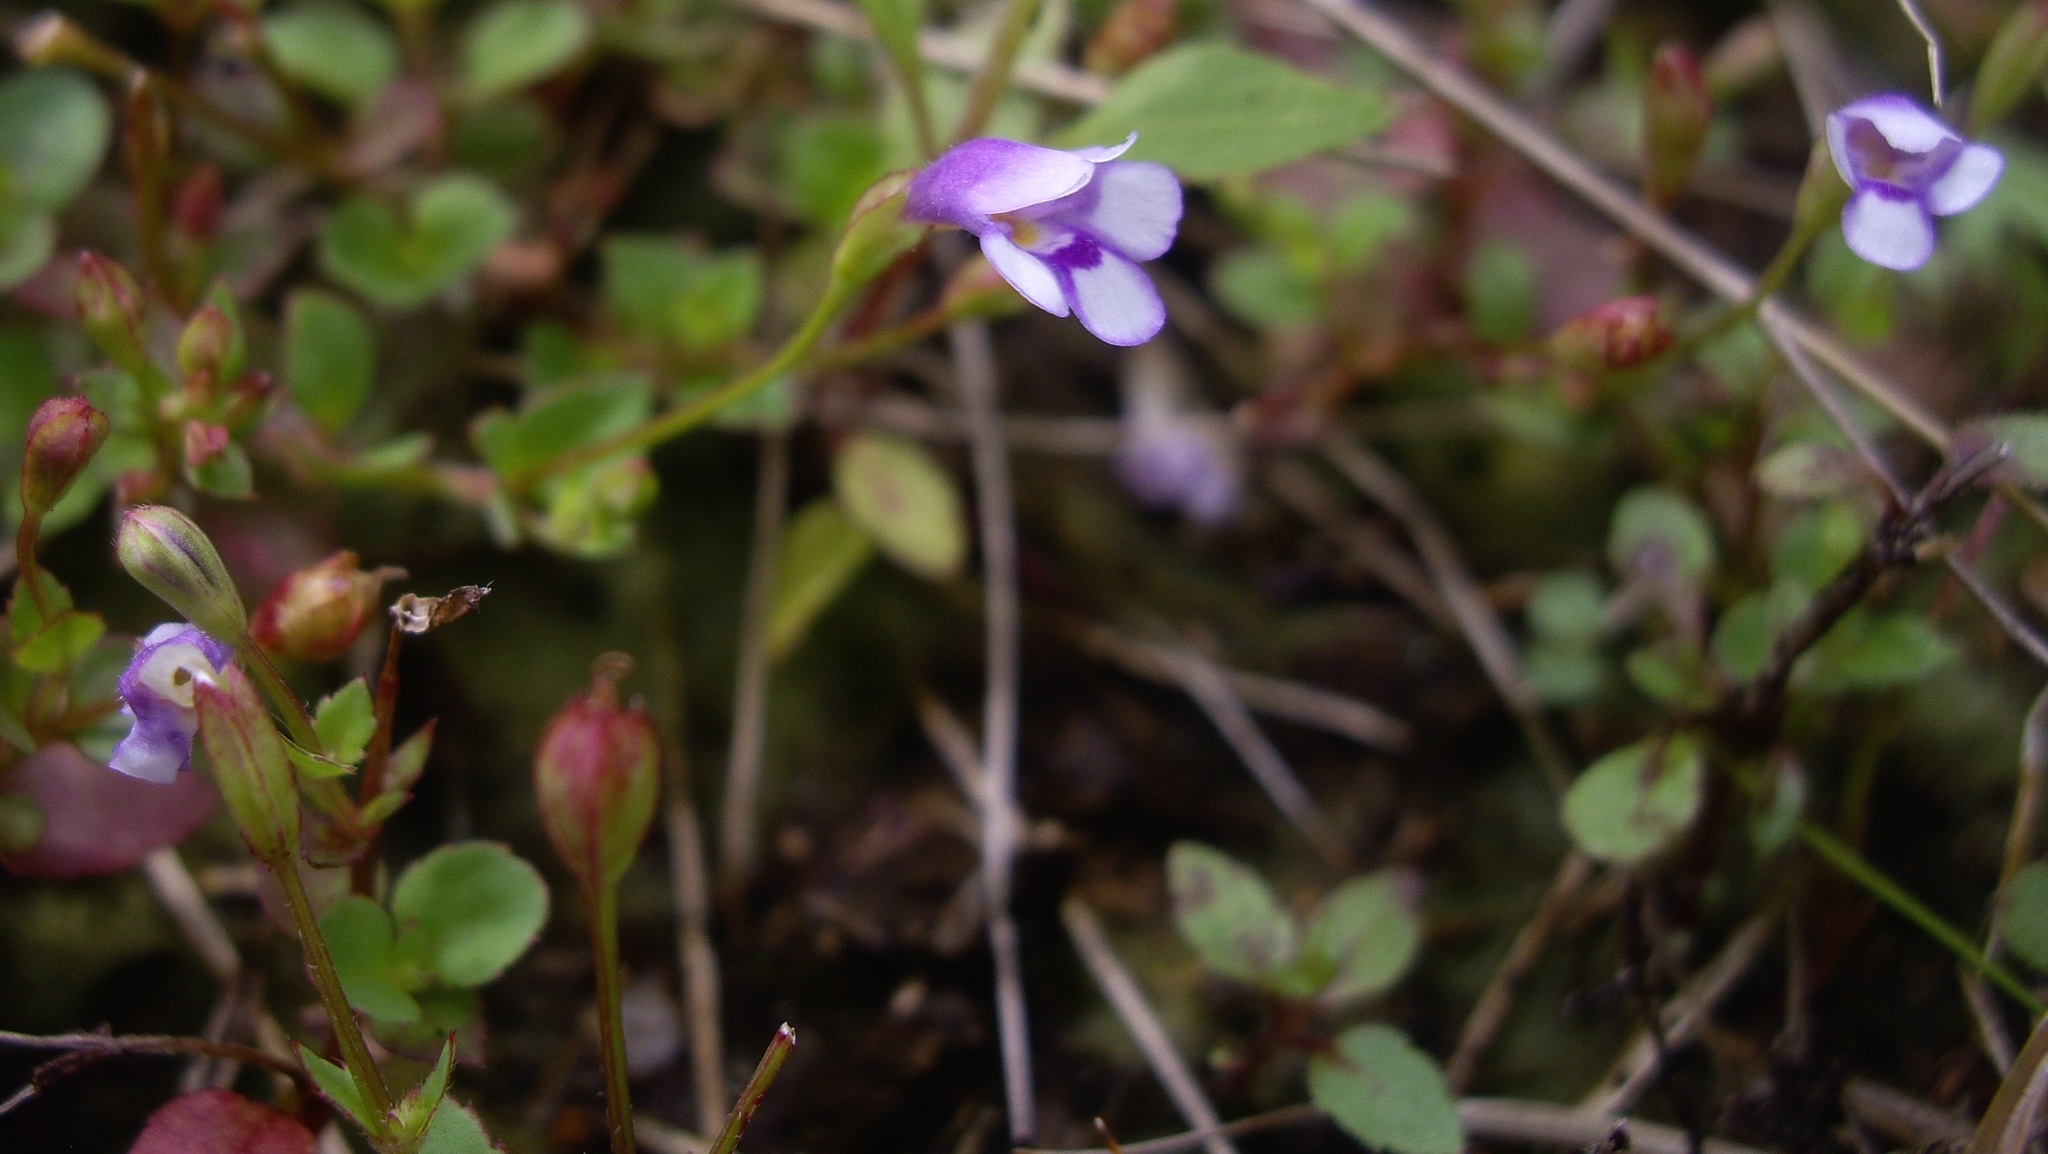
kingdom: Plantae
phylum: Tracheophyta
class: Magnoliopsida
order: Lamiales
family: Linderniaceae
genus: Torenia
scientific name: Torenia crustacea
